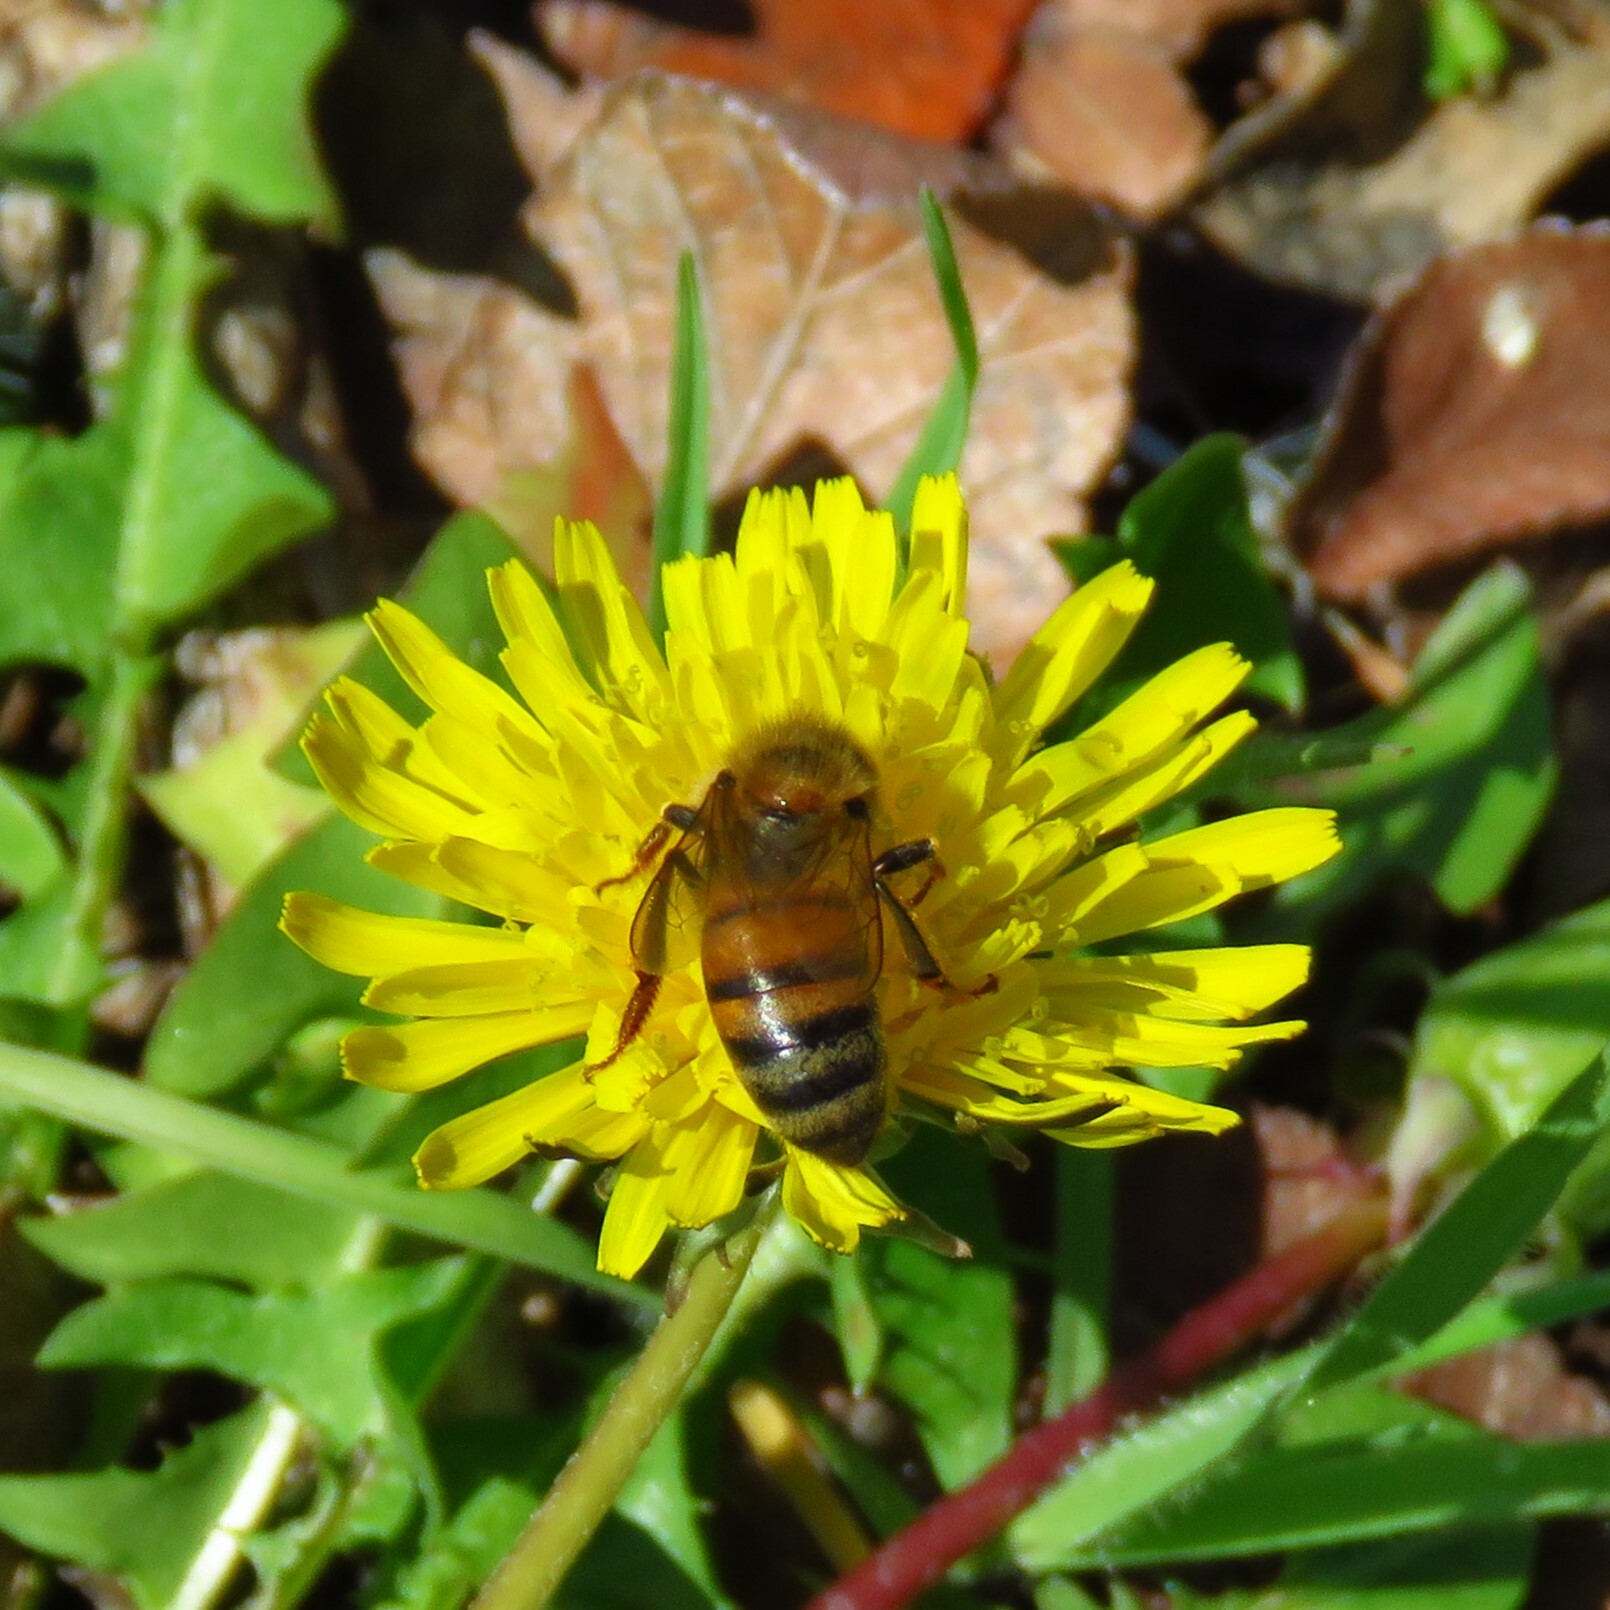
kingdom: Animalia
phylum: Arthropoda
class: Insecta
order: Hymenoptera
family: Apidae
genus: Apis
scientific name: Apis mellifera
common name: Honey bee
